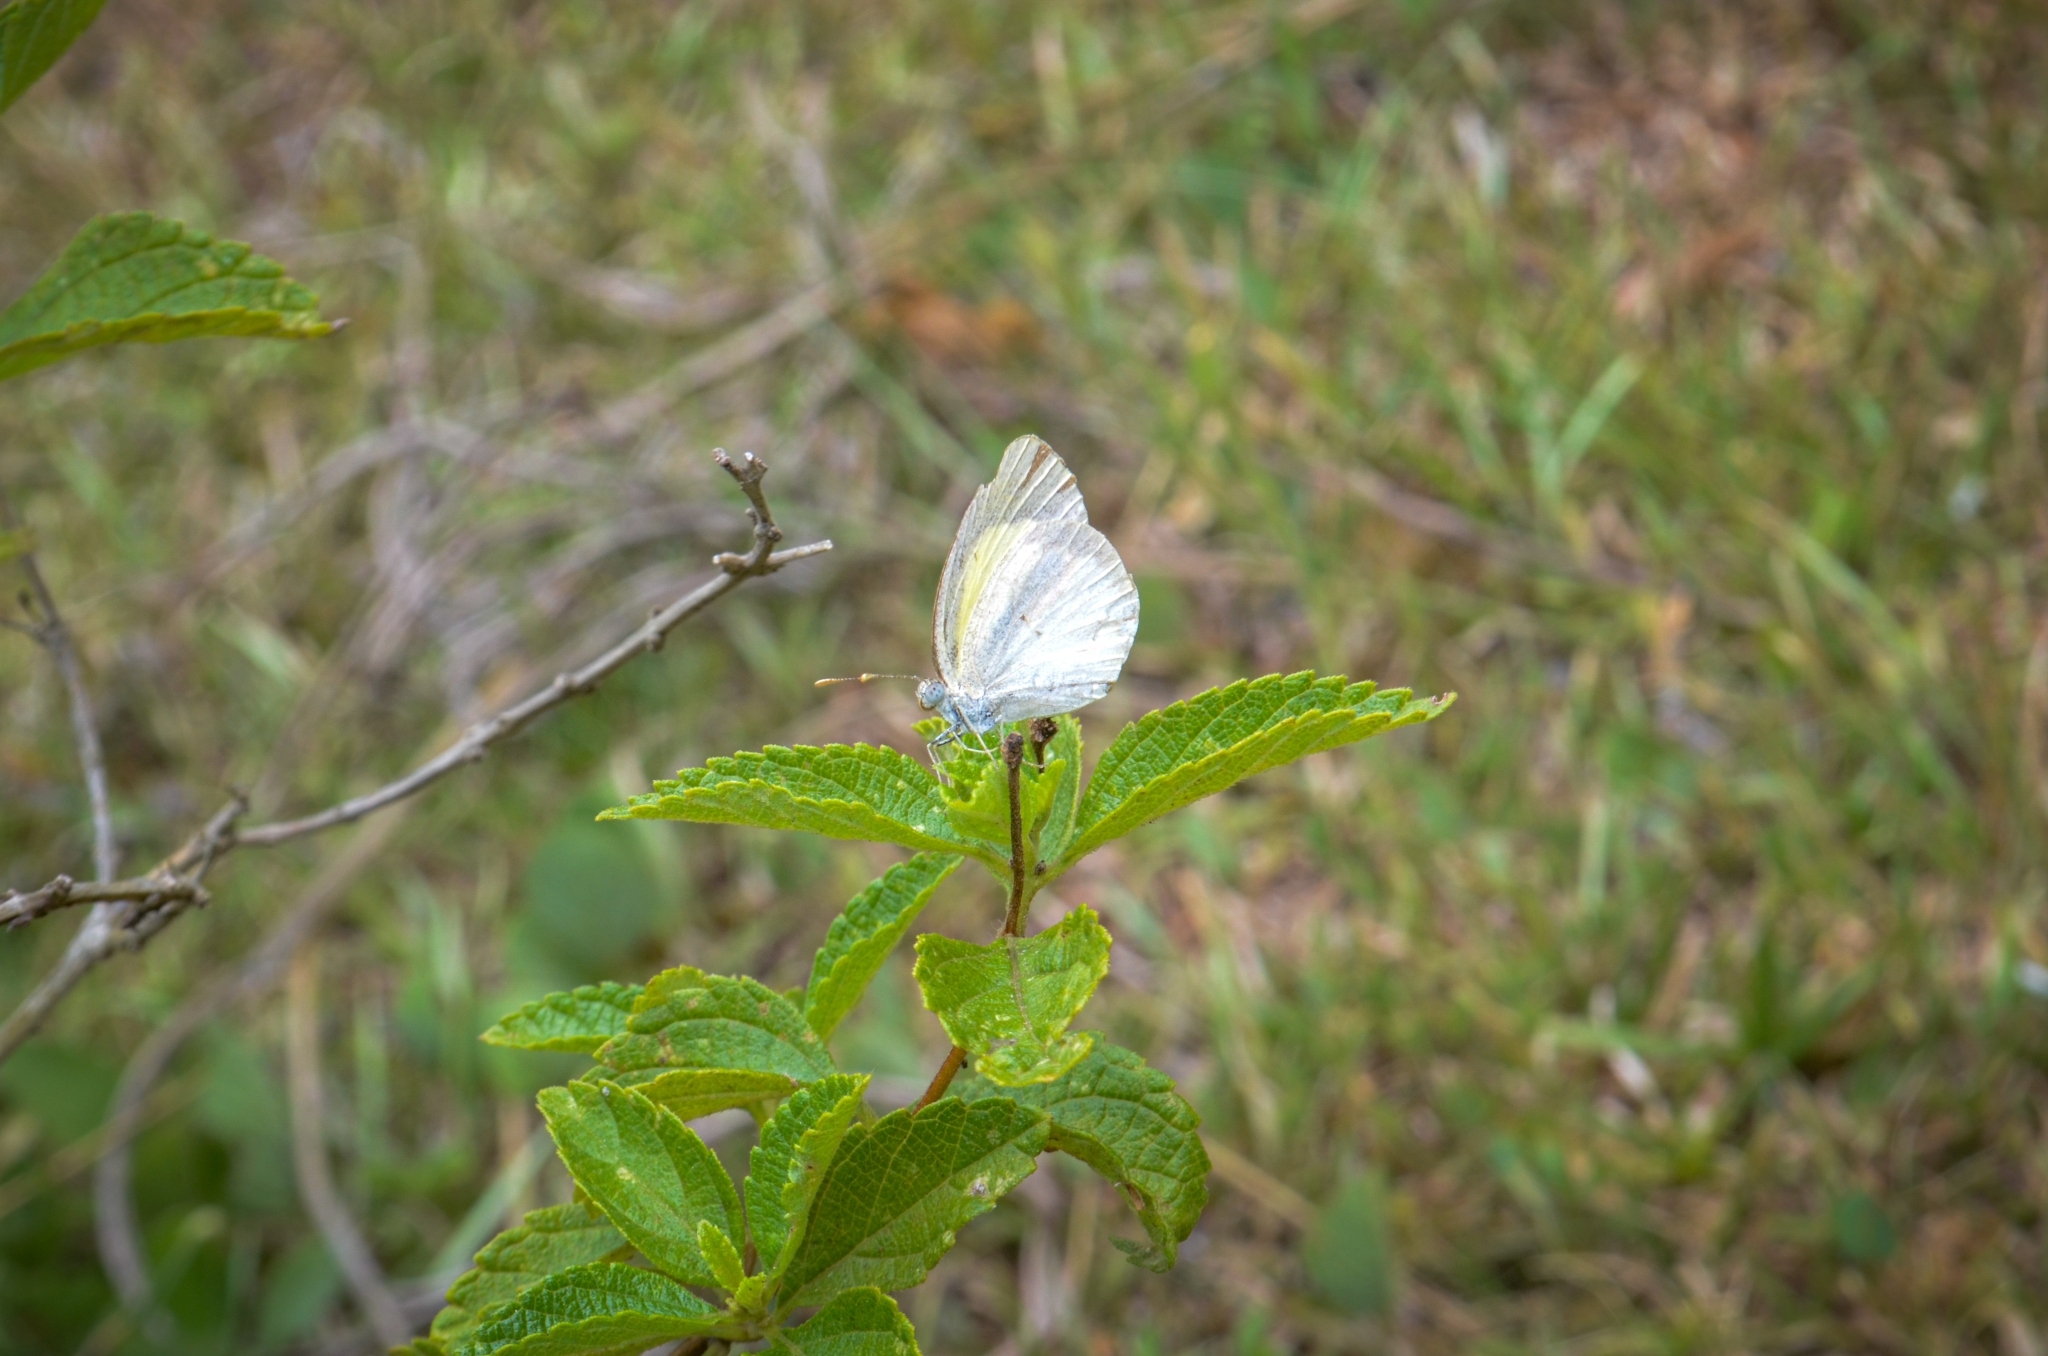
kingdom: Animalia
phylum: Arthropoda
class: Insecta
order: Lepidoptera
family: Pieridae
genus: Eurema
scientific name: Eurema elathea
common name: Banded yellow
